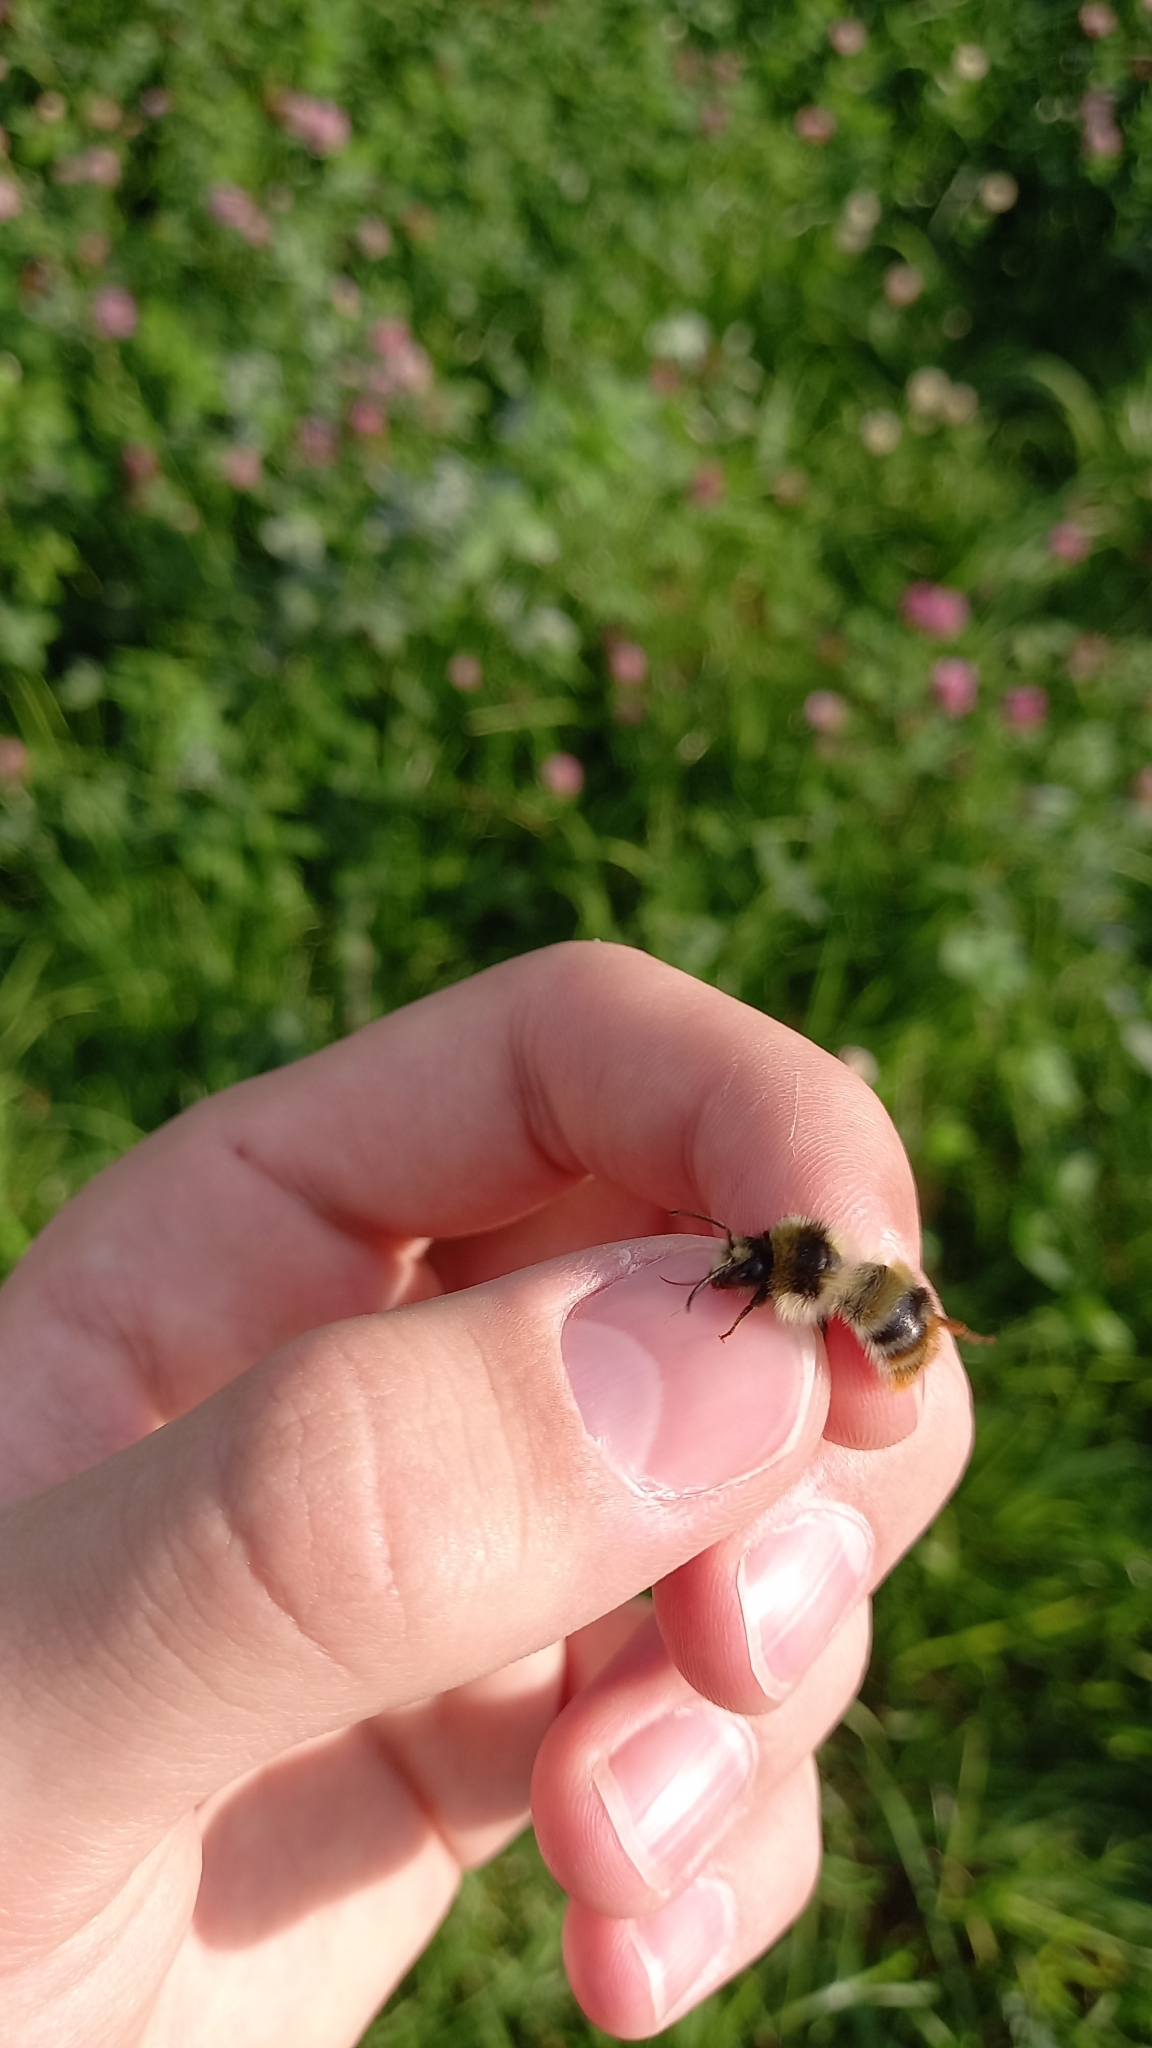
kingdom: Animalia
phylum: Arthropoda
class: Insecta
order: Hymenoptera
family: Apidae
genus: Bombus
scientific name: Bombus sylvarum
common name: Shrill carder bee
